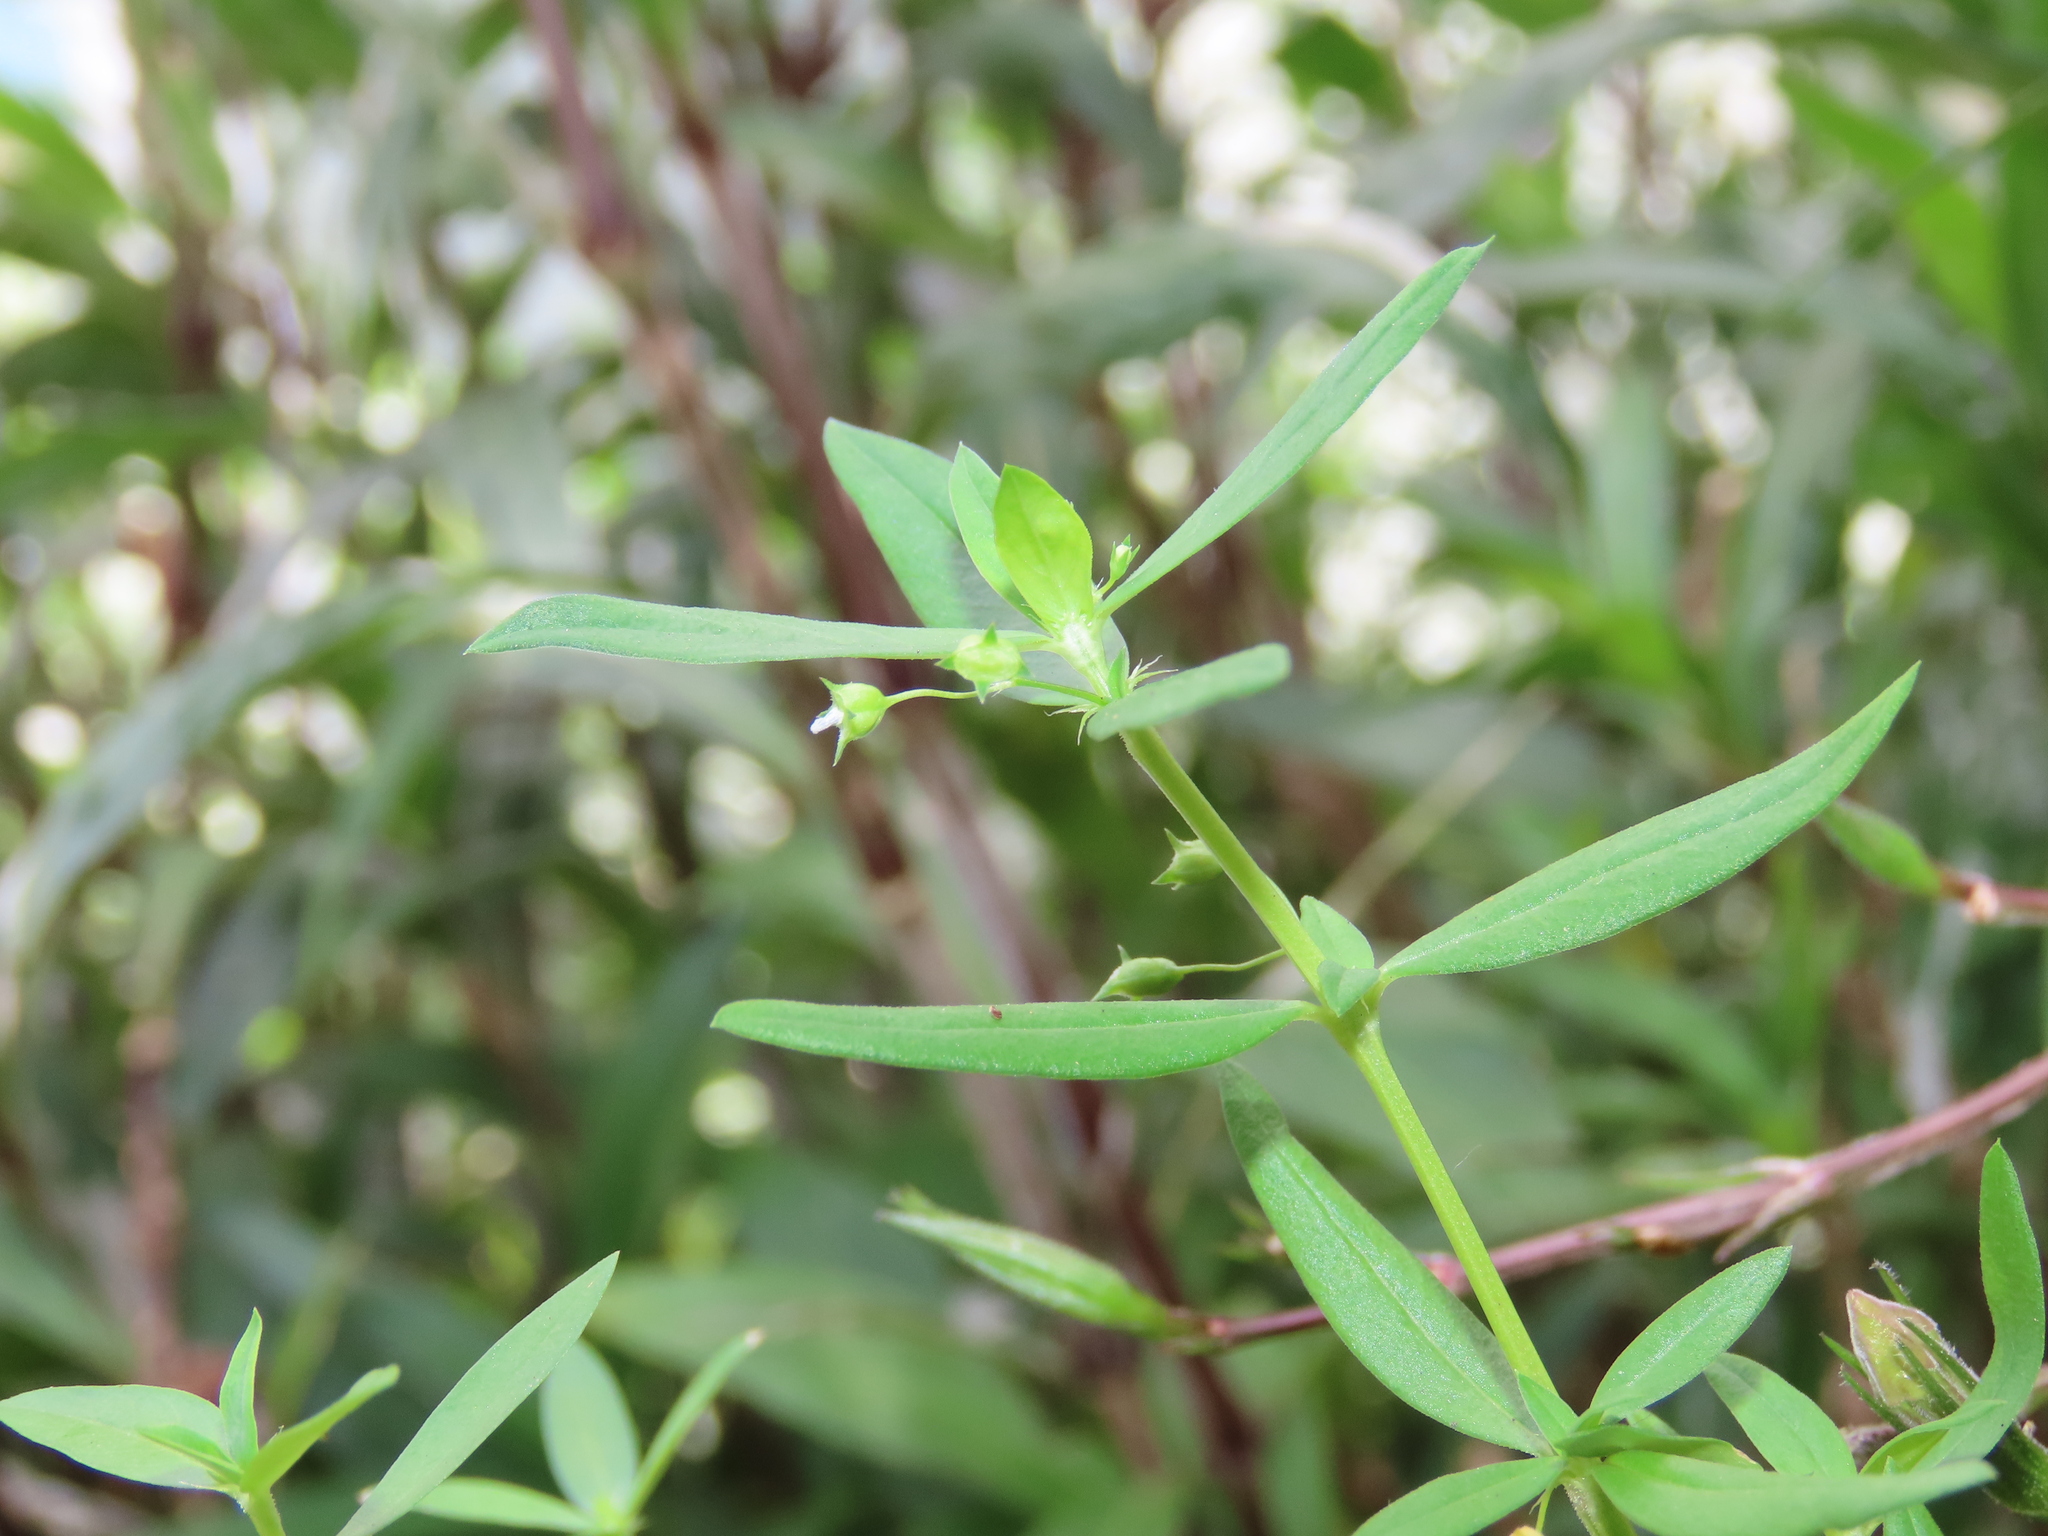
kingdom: Plantae
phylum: Tracheophyta
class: Magnoliopsida
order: Gentianales
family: Rubiaceae
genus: Oldenlandia
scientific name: Oldenlandia corymbosa
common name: Flat-top mille graines
